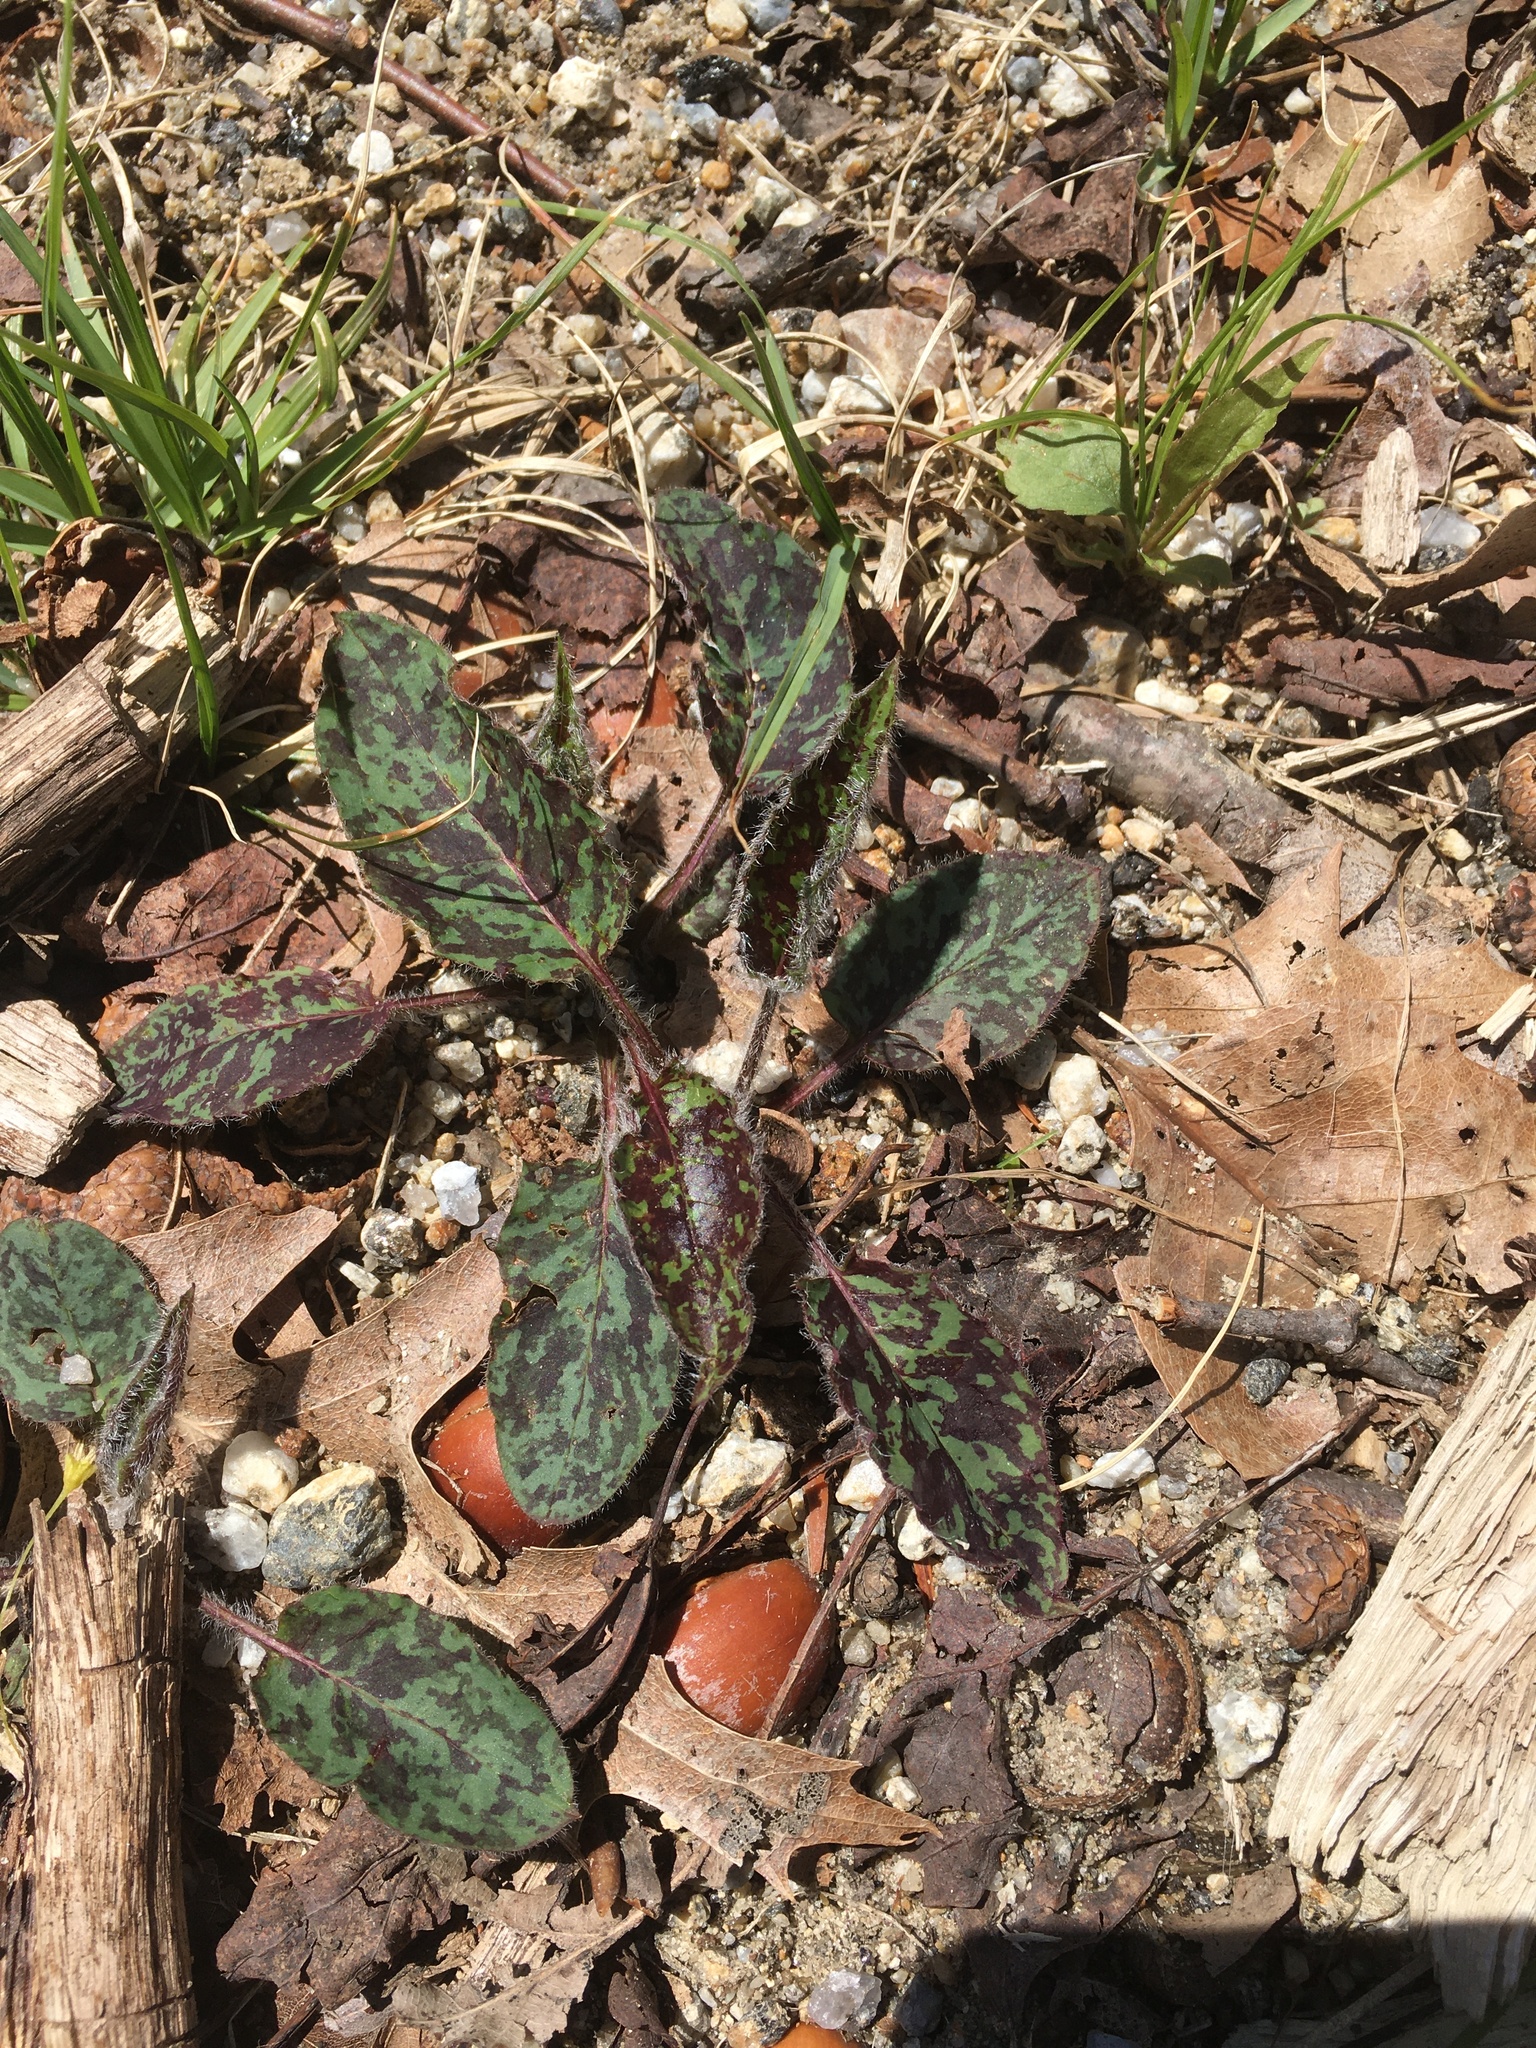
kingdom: Plantae
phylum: Tracheophyta
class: Magnoliopsida
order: Asterales
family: Asteraceae
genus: Hieracium
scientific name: Hieracium maculatum
